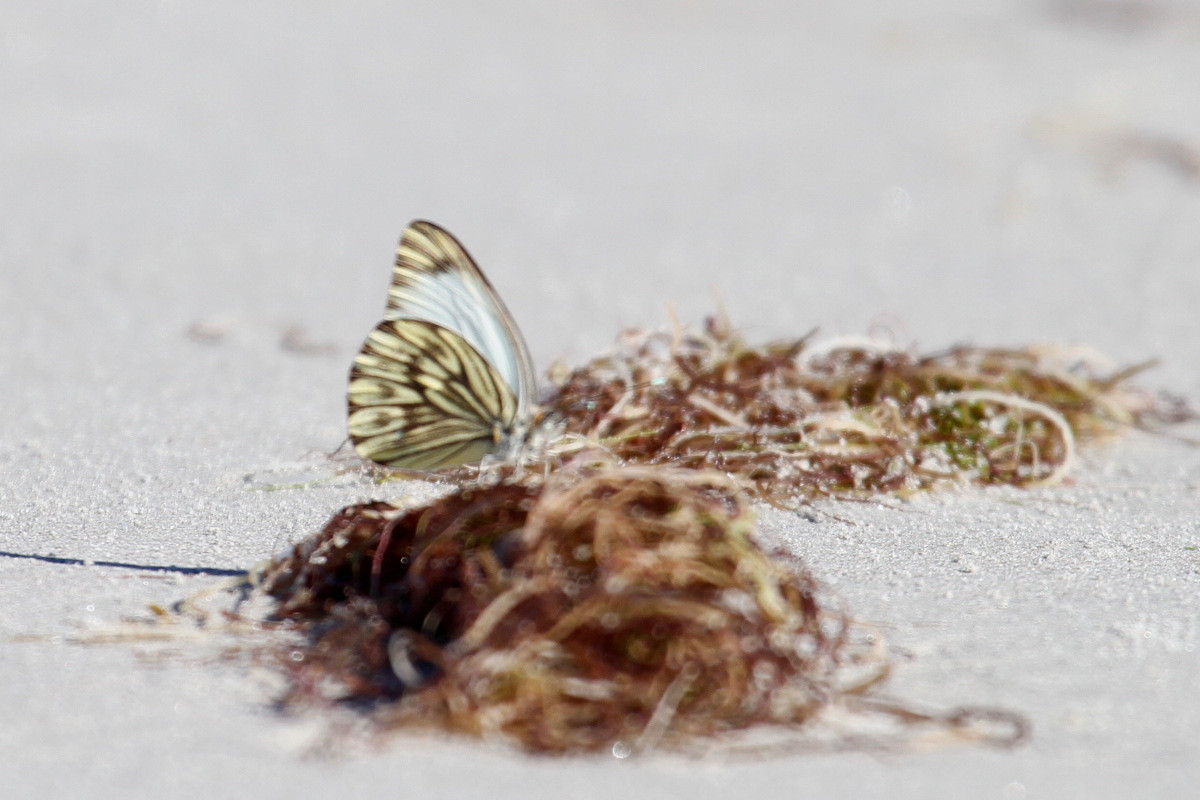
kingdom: Animalia
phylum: Arthropoda
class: Insecta
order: Lepidoptera
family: Pieridae
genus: Ascia
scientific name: Ascia monuste
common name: Great southern white
